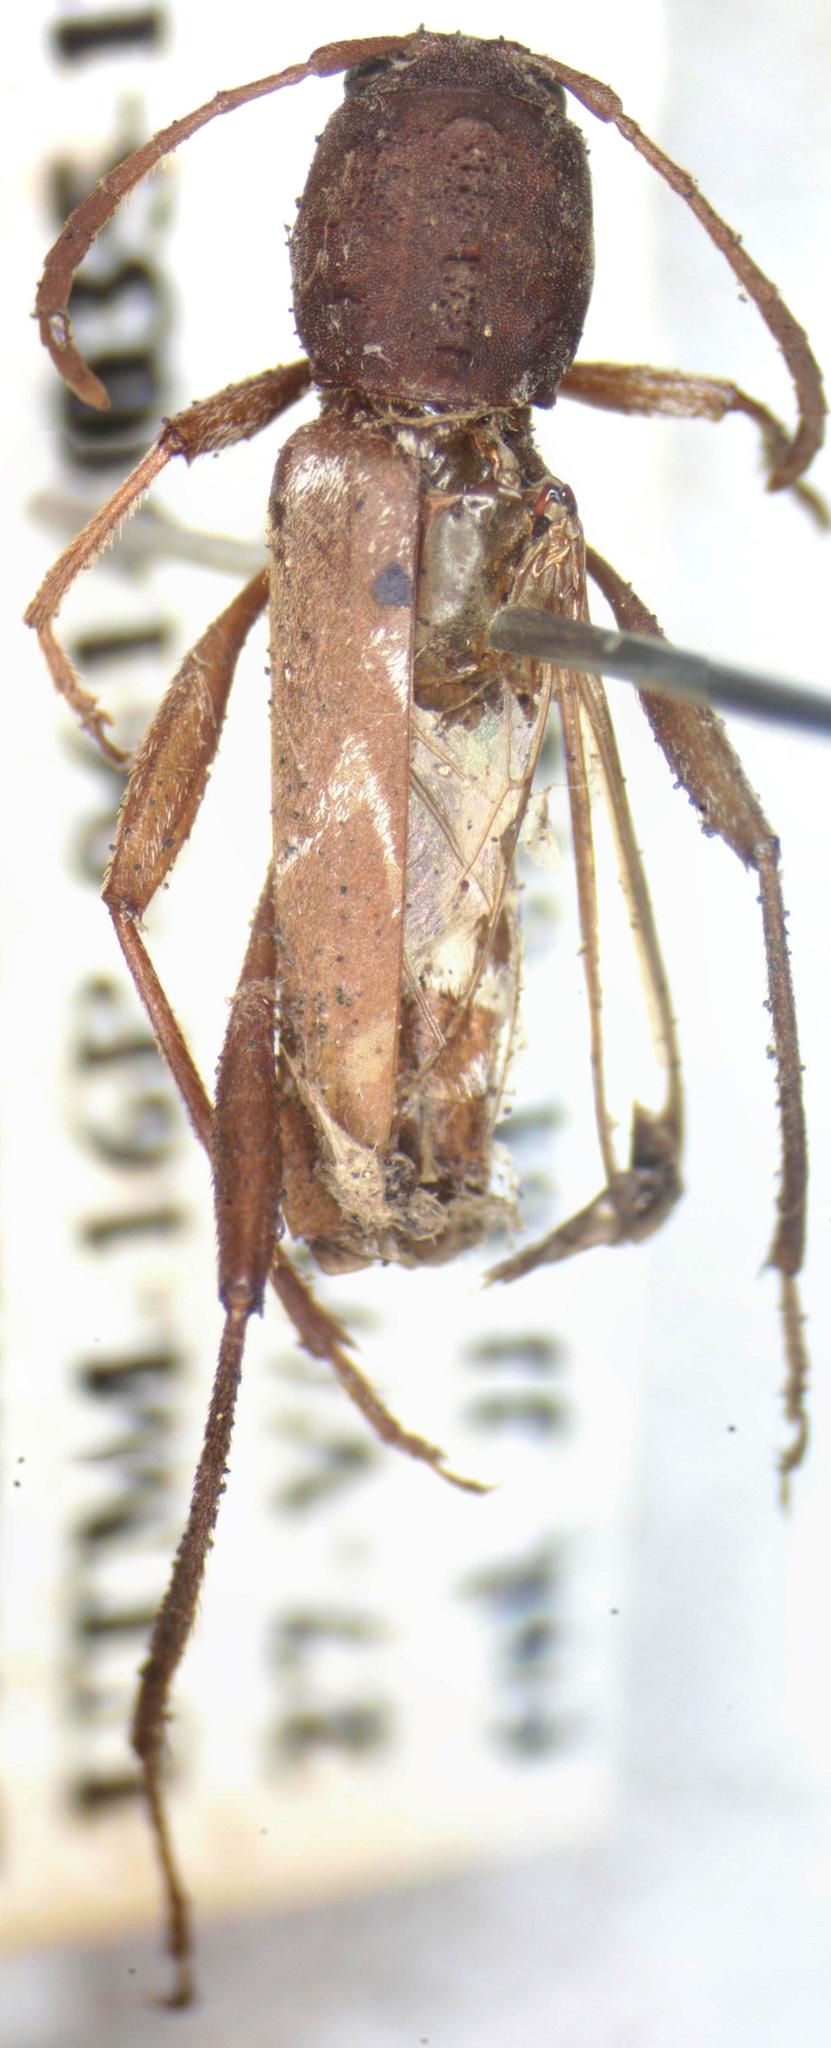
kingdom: Animalia
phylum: Arthropoda
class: Insecta
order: Coleoptera
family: Cerambycidae
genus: Neoclytus
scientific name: Neoclytus cacicus
